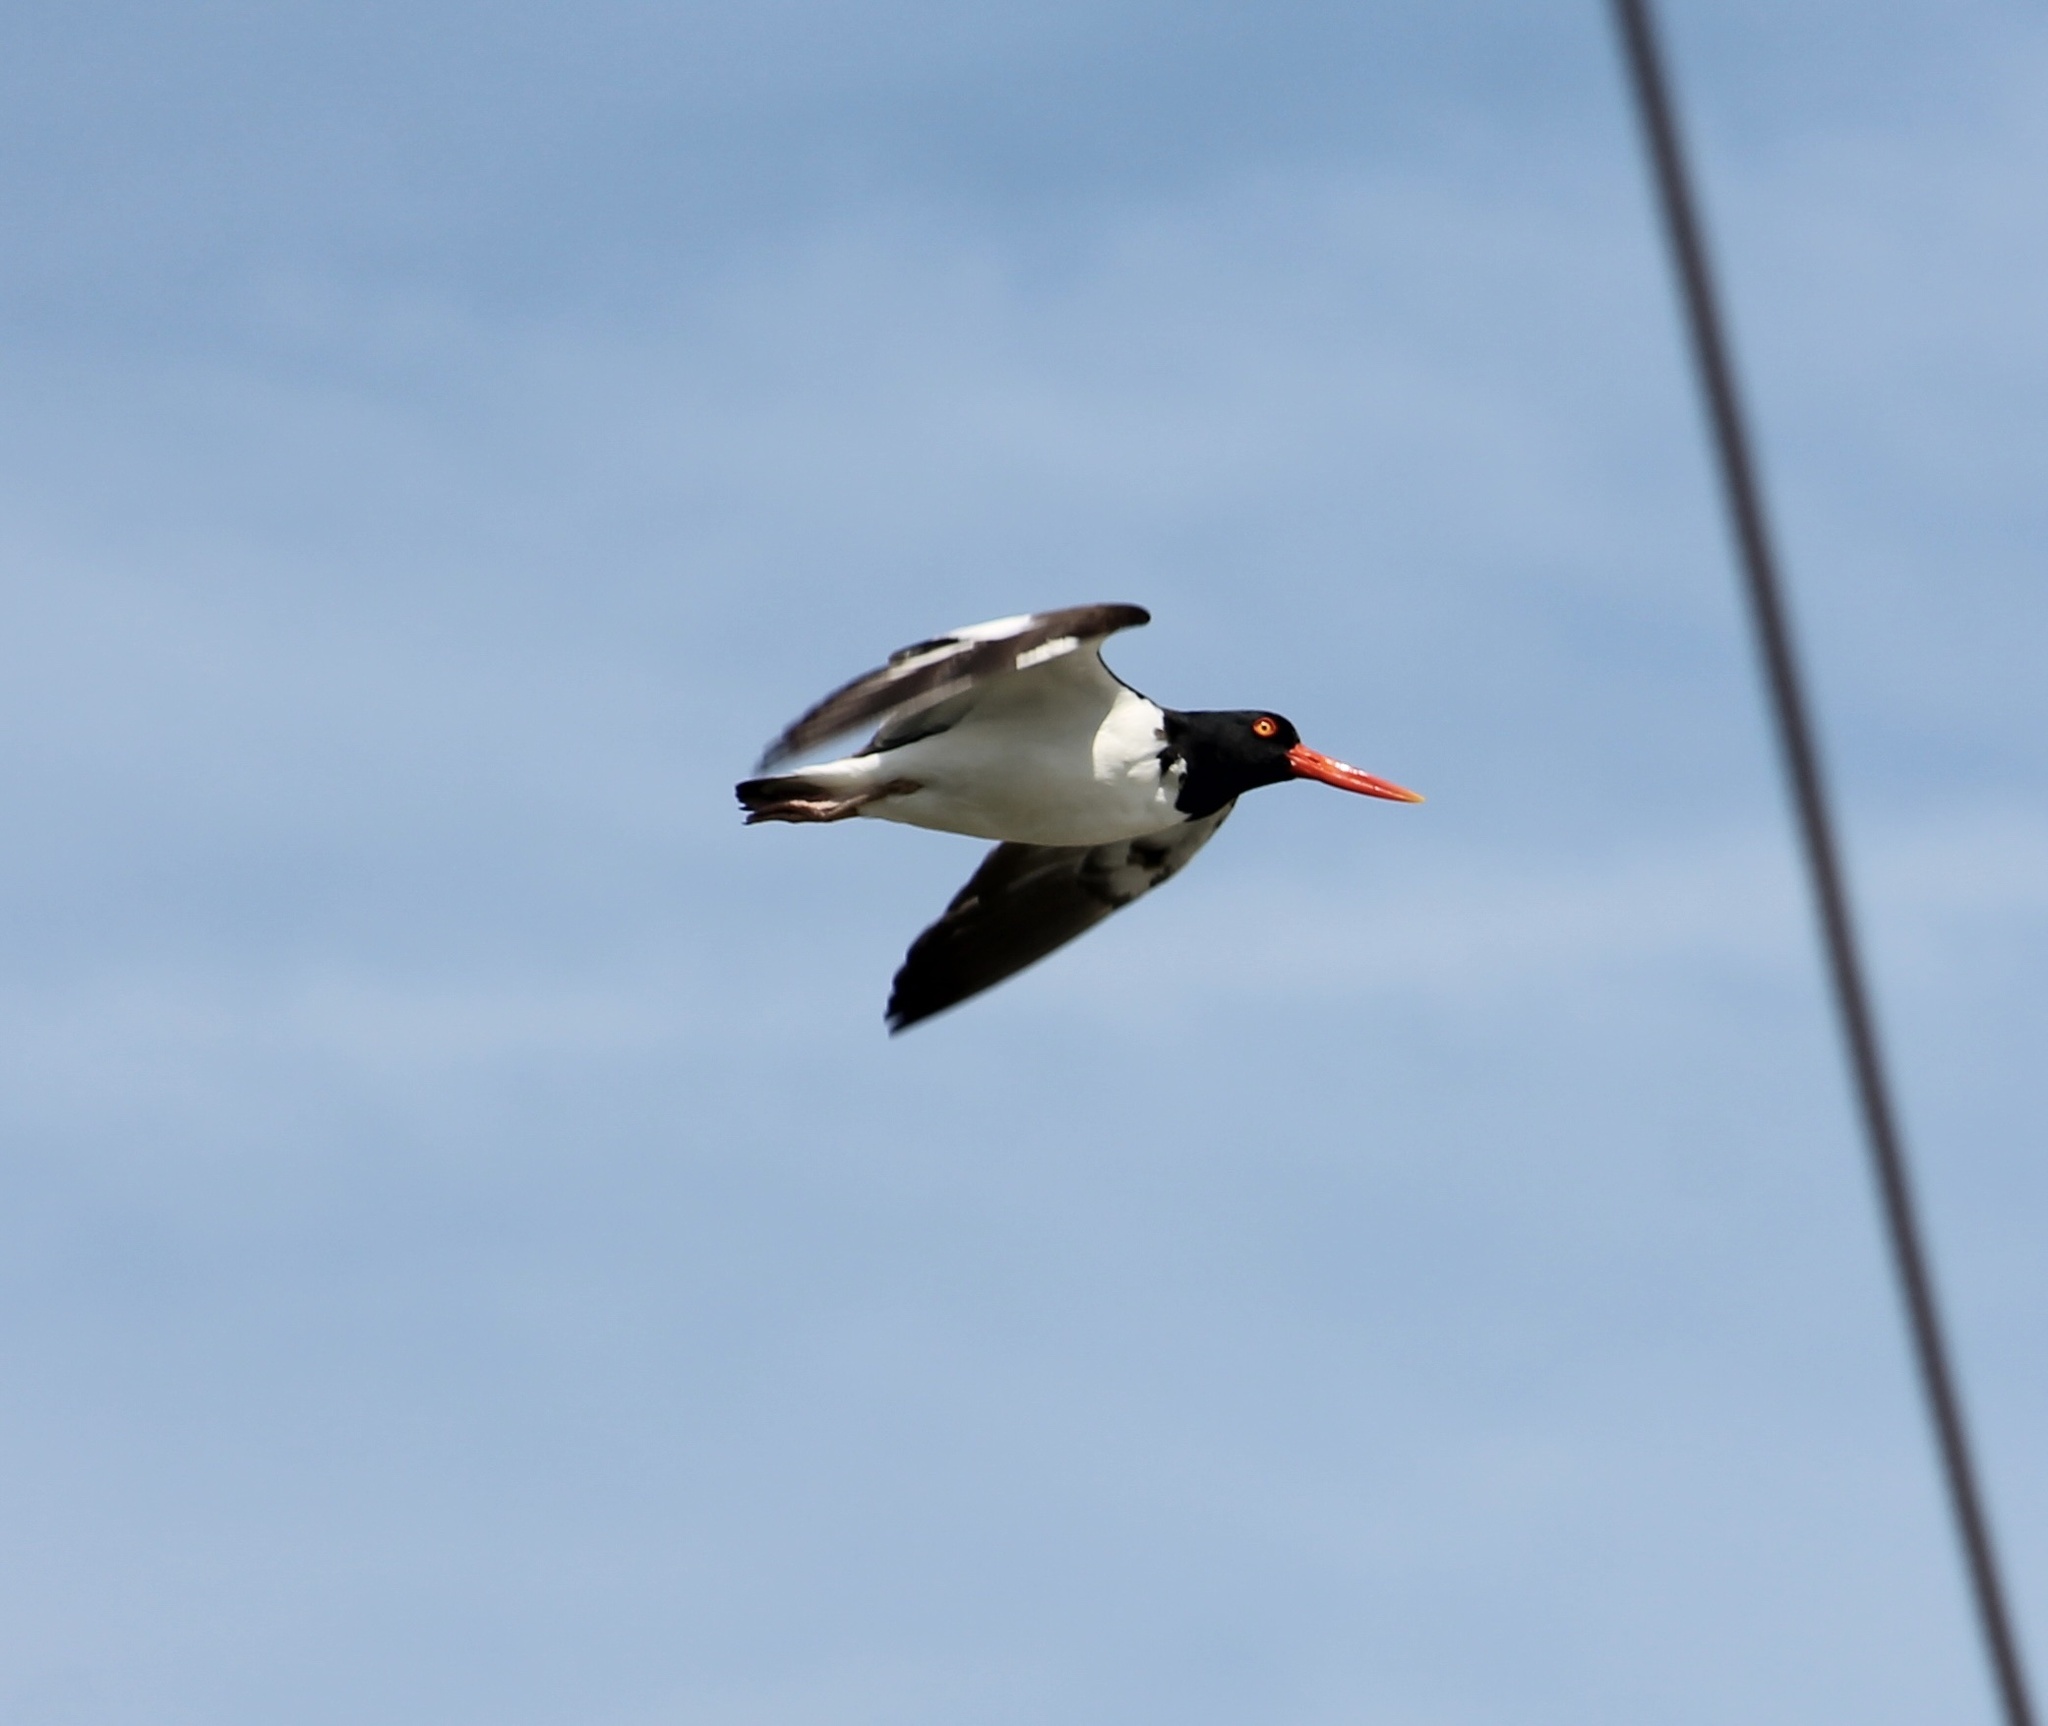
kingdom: Animalia
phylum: Chordata
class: Aves
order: Charadriiformes
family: Haematopodidae
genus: Haematopus
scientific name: Haematopus palliatus
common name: American oystercatcher
